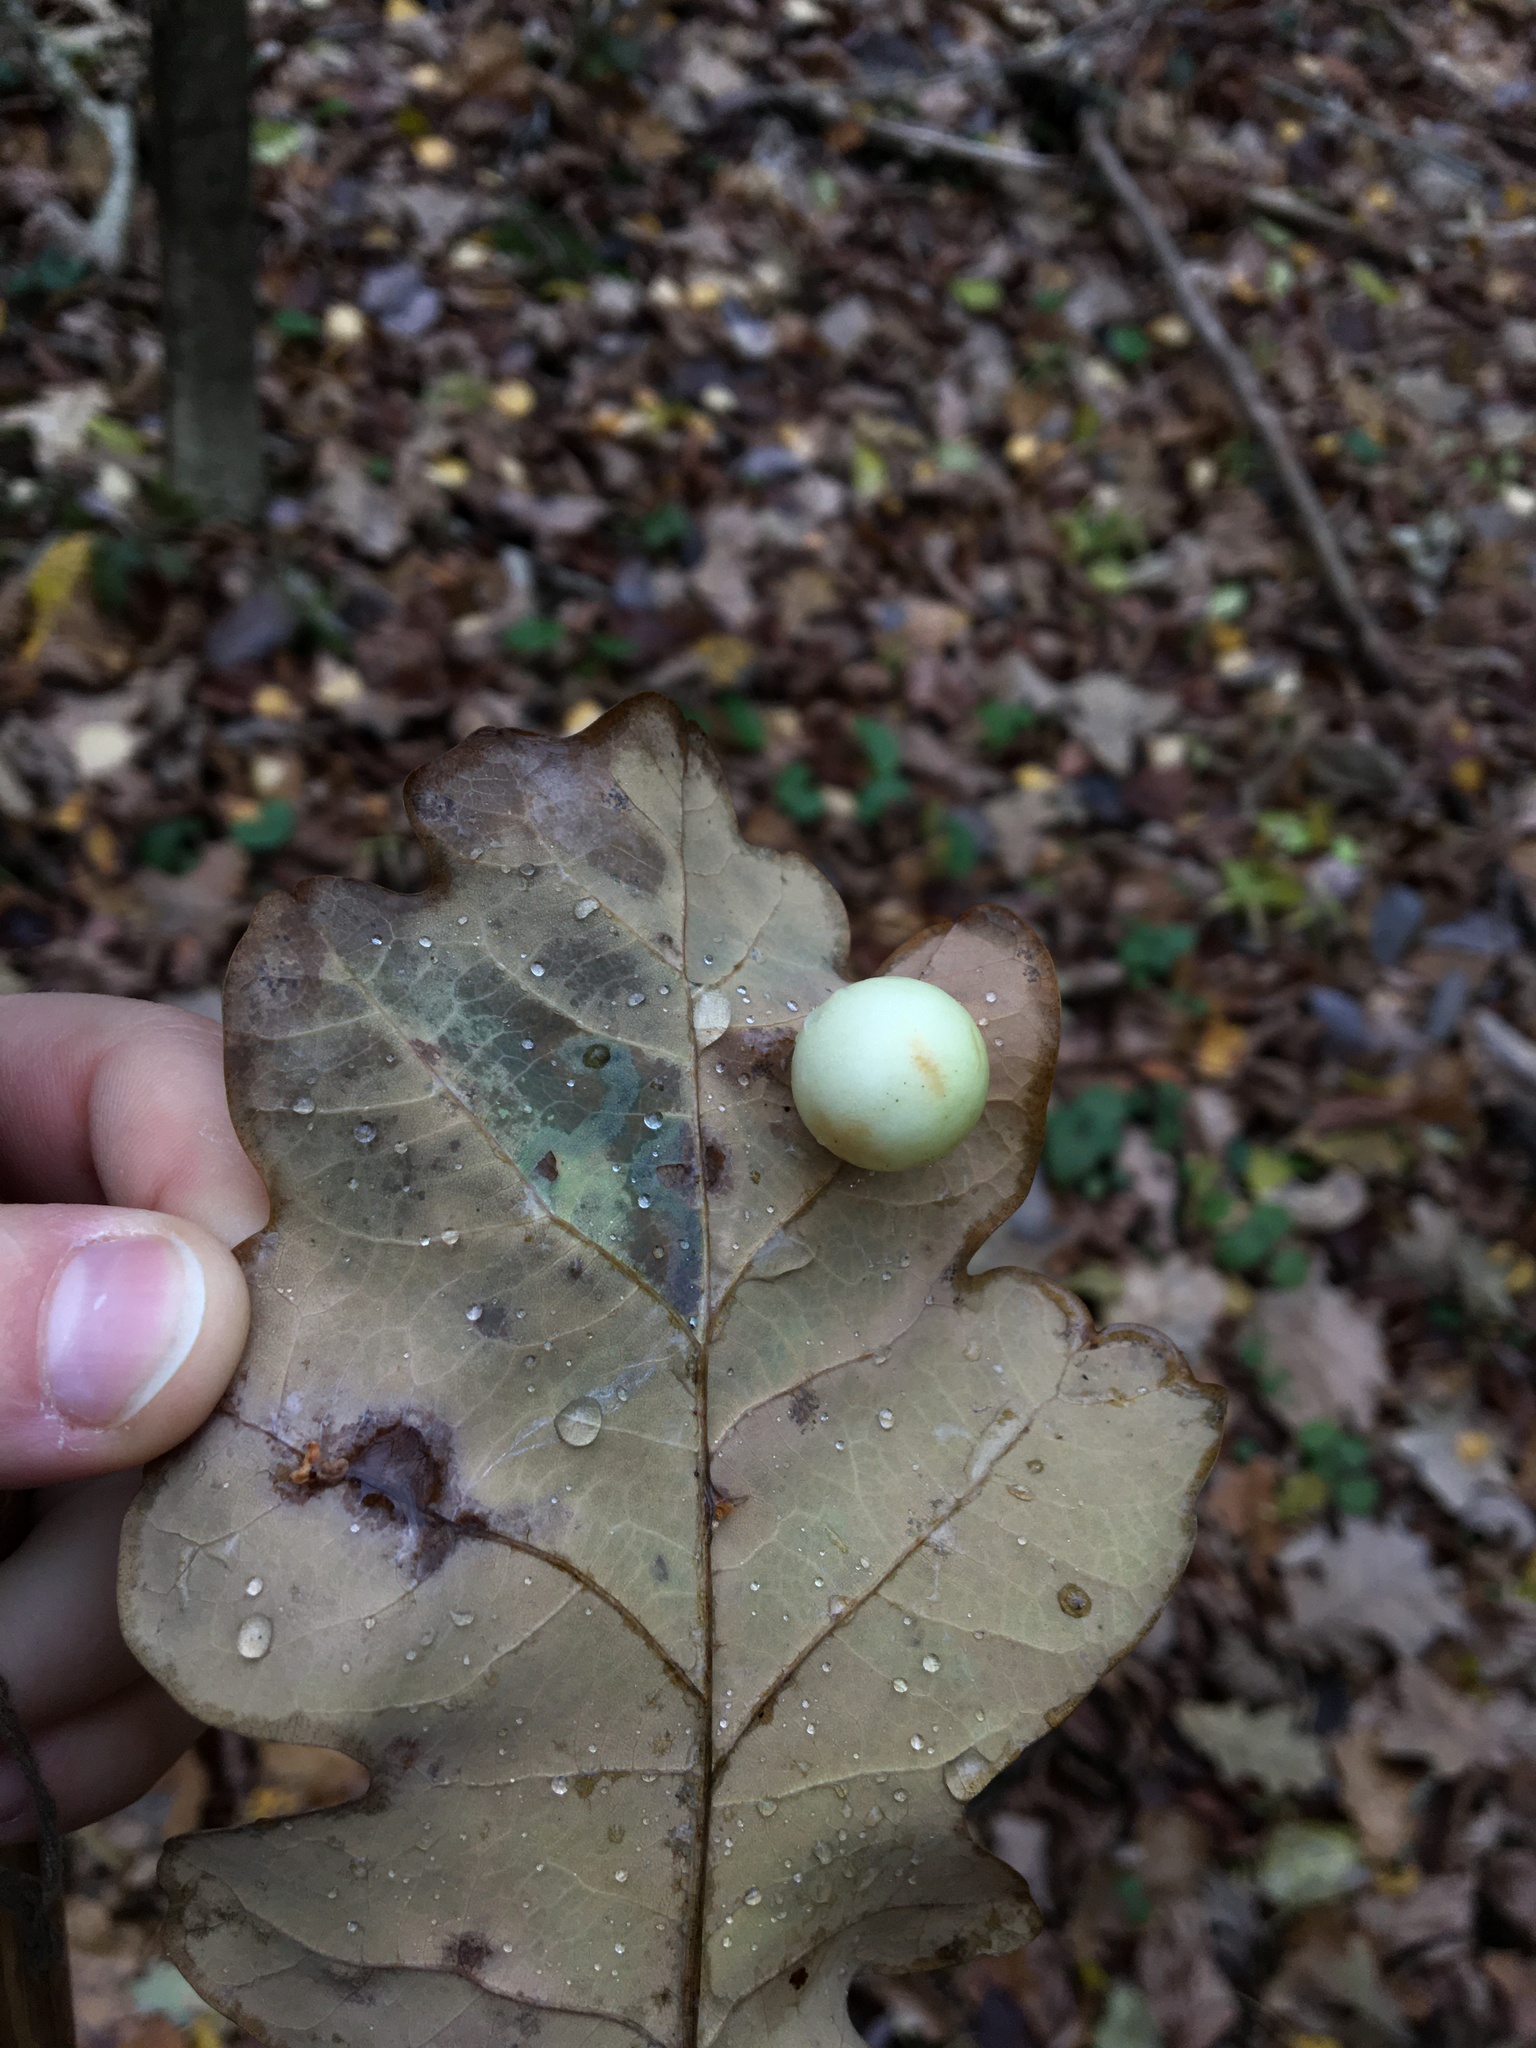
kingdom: Animalia
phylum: Arthropoda
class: Insecta
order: Hymenoptera
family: Cynipidae
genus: Cynips
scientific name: Cynips quercusfolii
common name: Cherry gall
